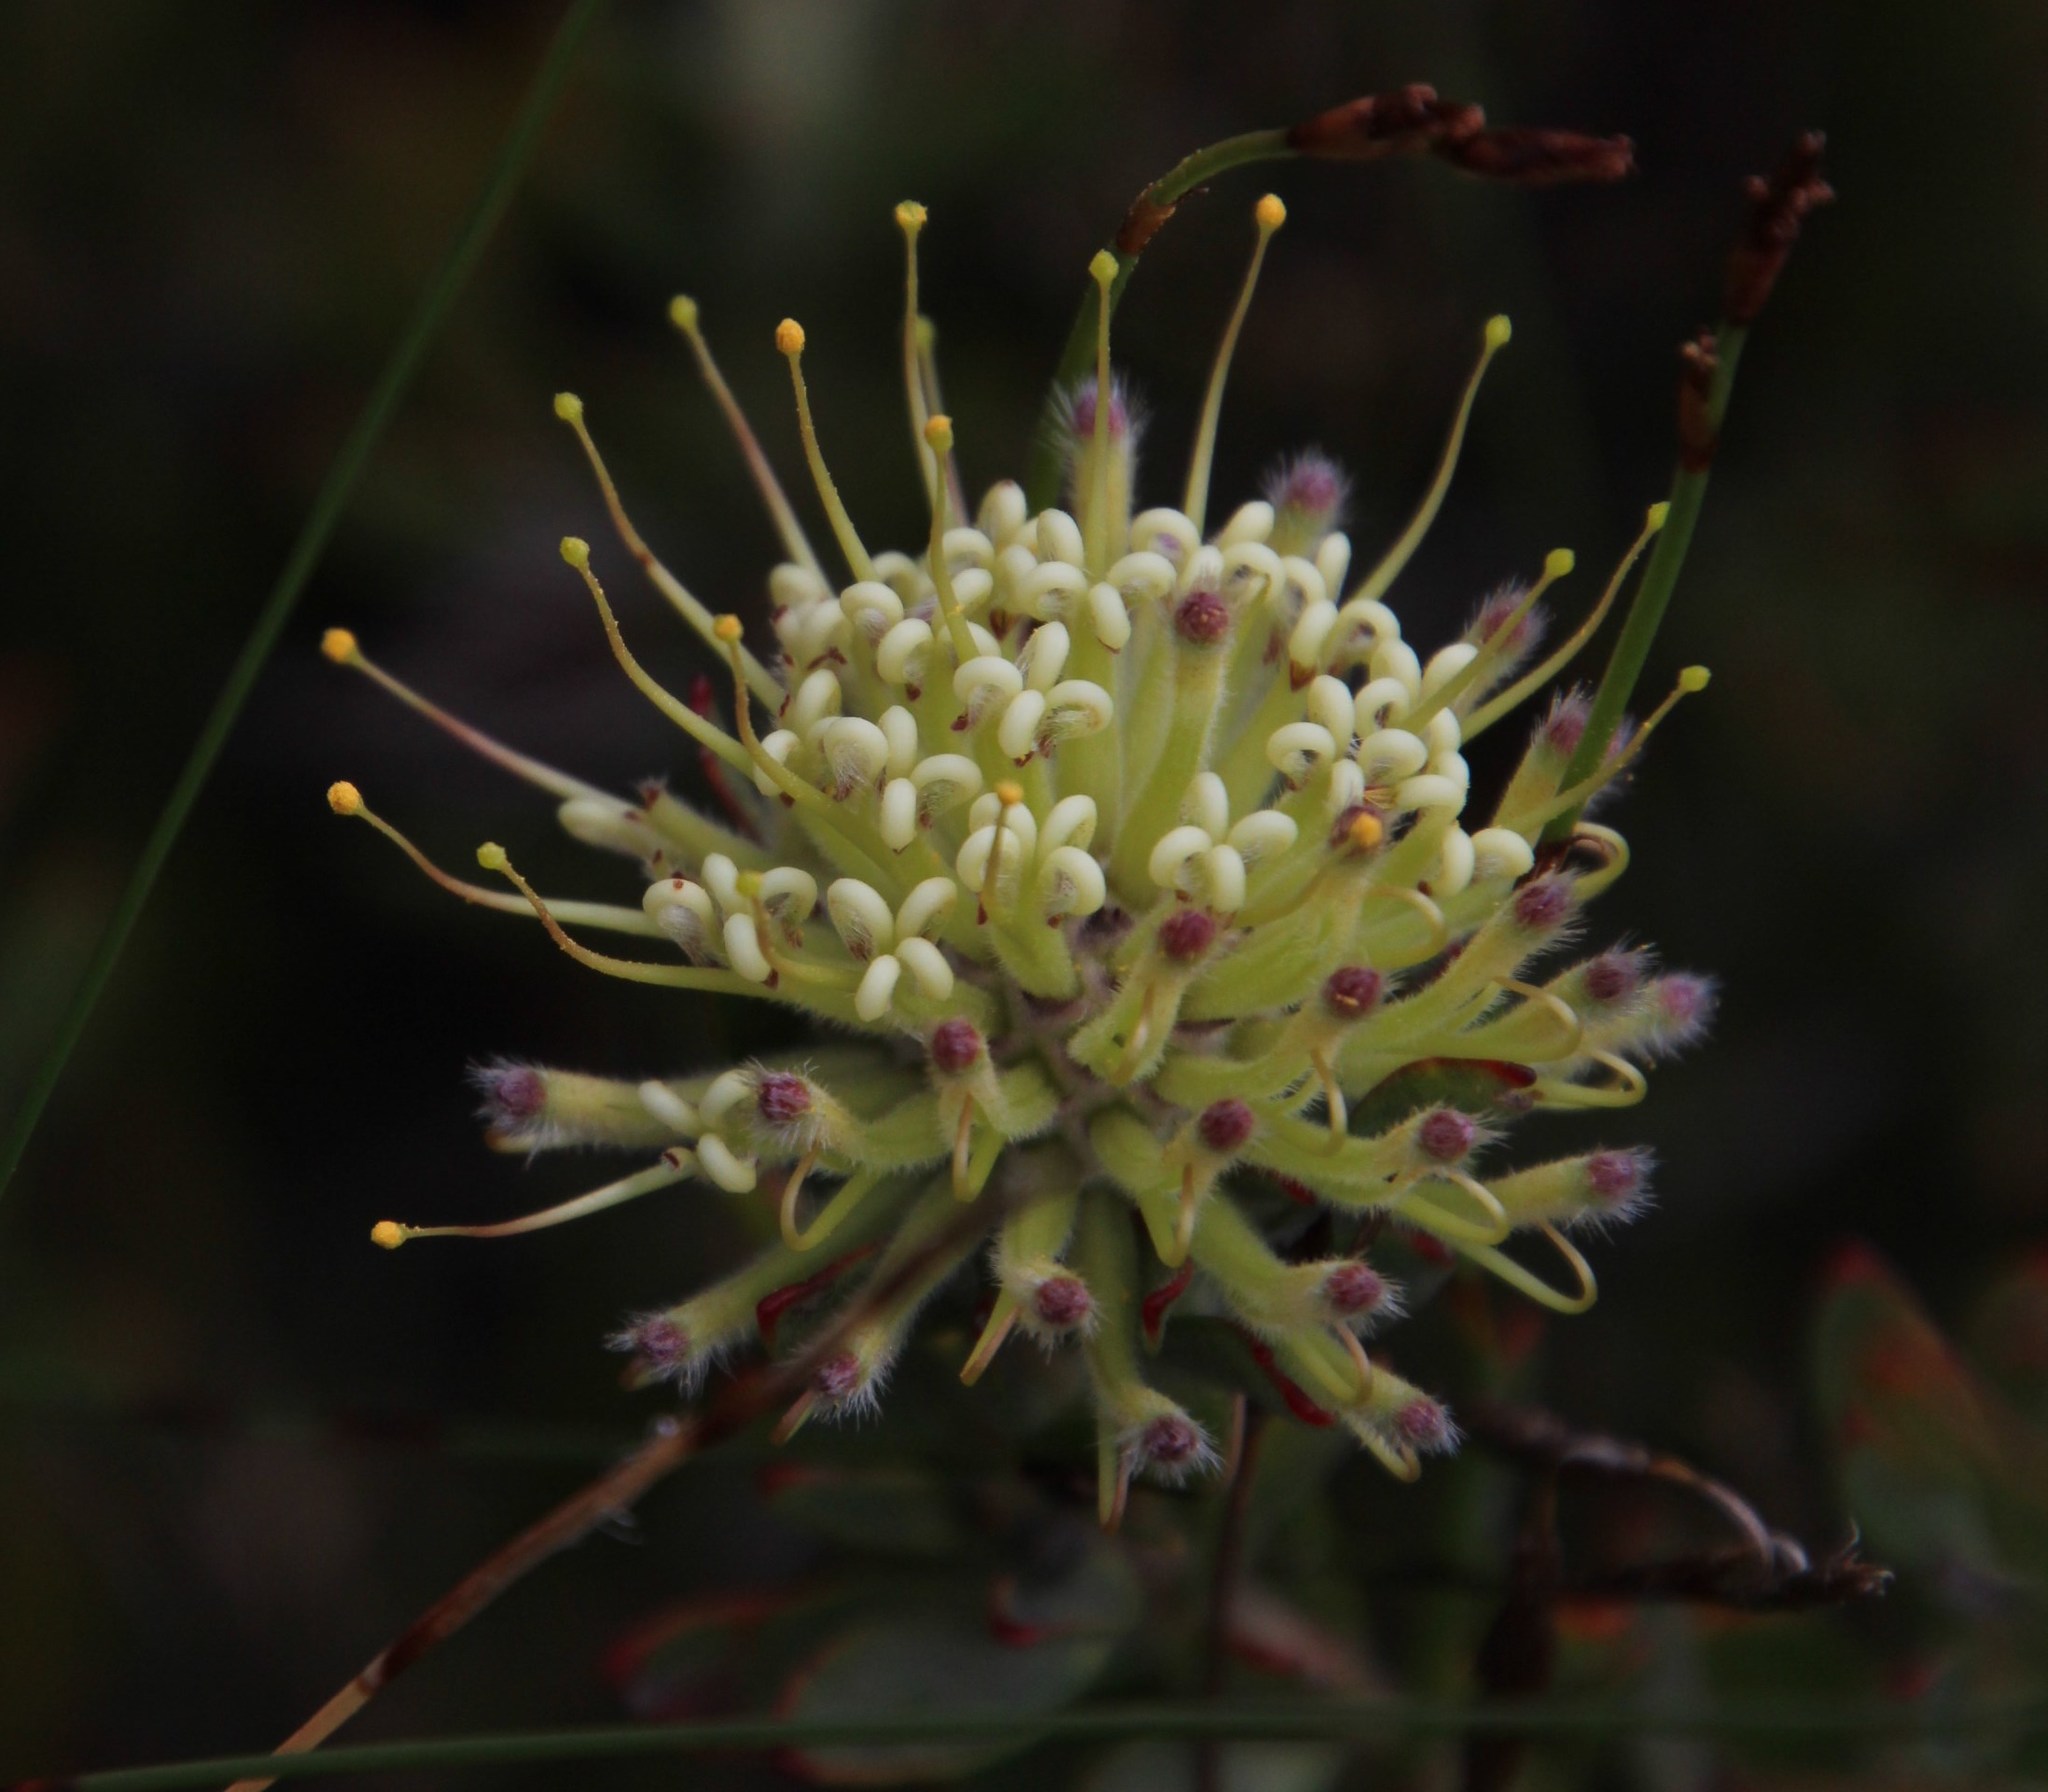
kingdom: Plantae
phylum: Tracheophyta
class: Magnoliopsida
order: Proteales
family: Proteaceae
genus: Leucospermum
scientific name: Leucospermum heterophyllum
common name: Trident pincushion
